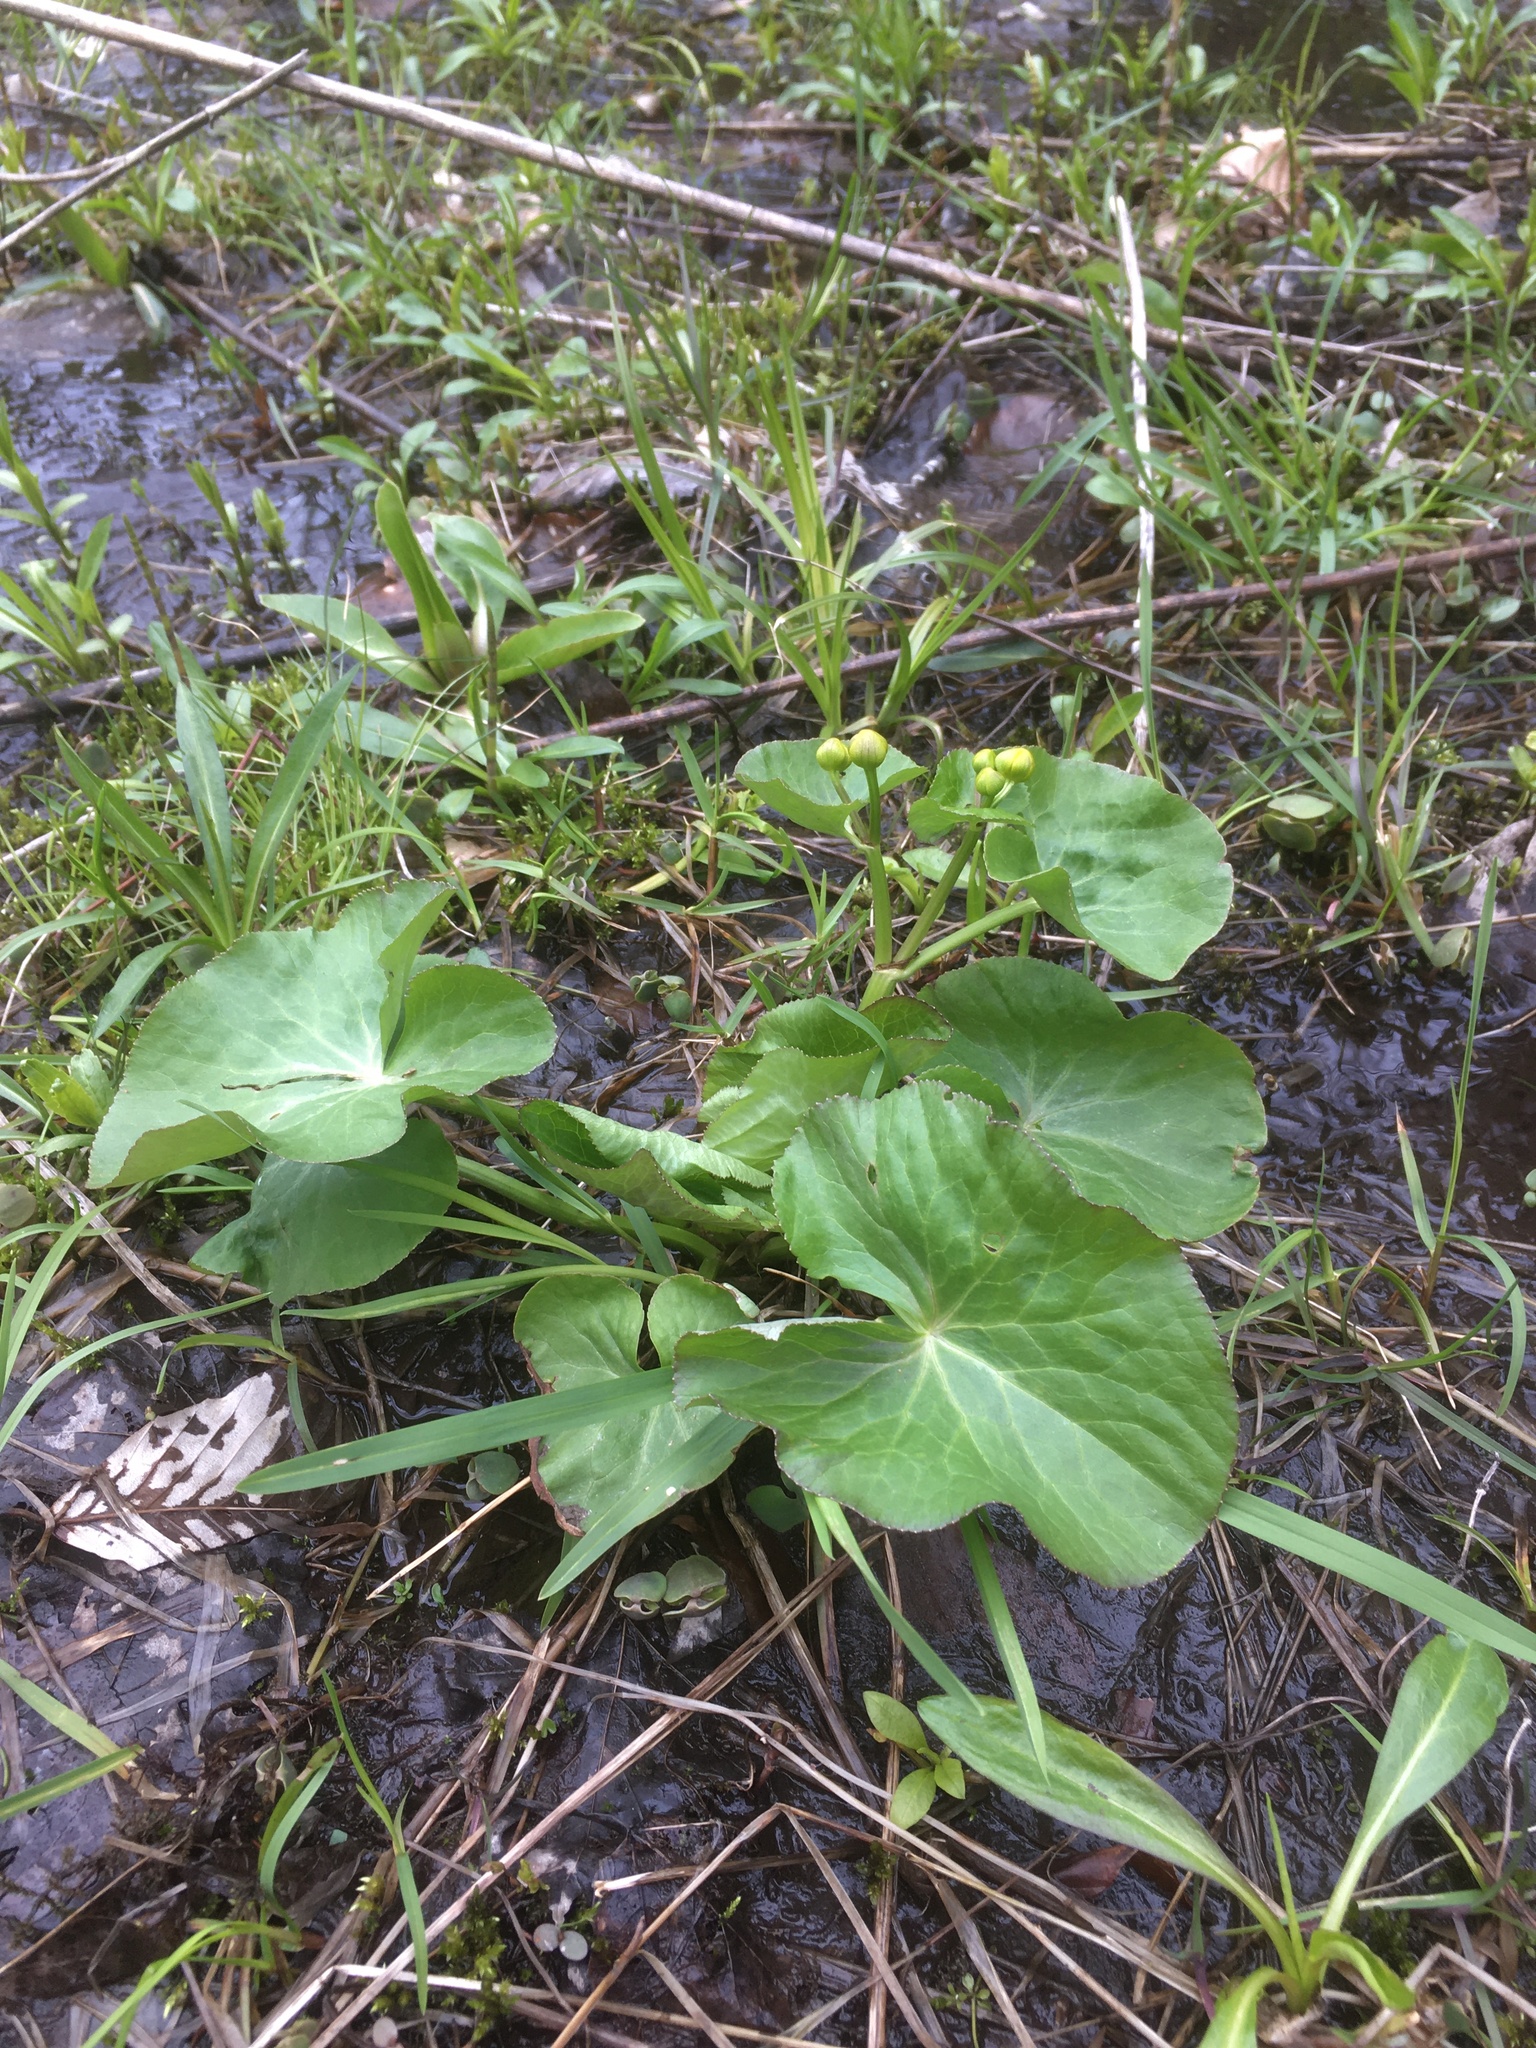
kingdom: Plantae
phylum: Tracheophyta
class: Magnoliopsida
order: Ranunculales
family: Ranunculaceae
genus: Caltha
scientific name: Caltha palustris
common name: Marsh marigold
